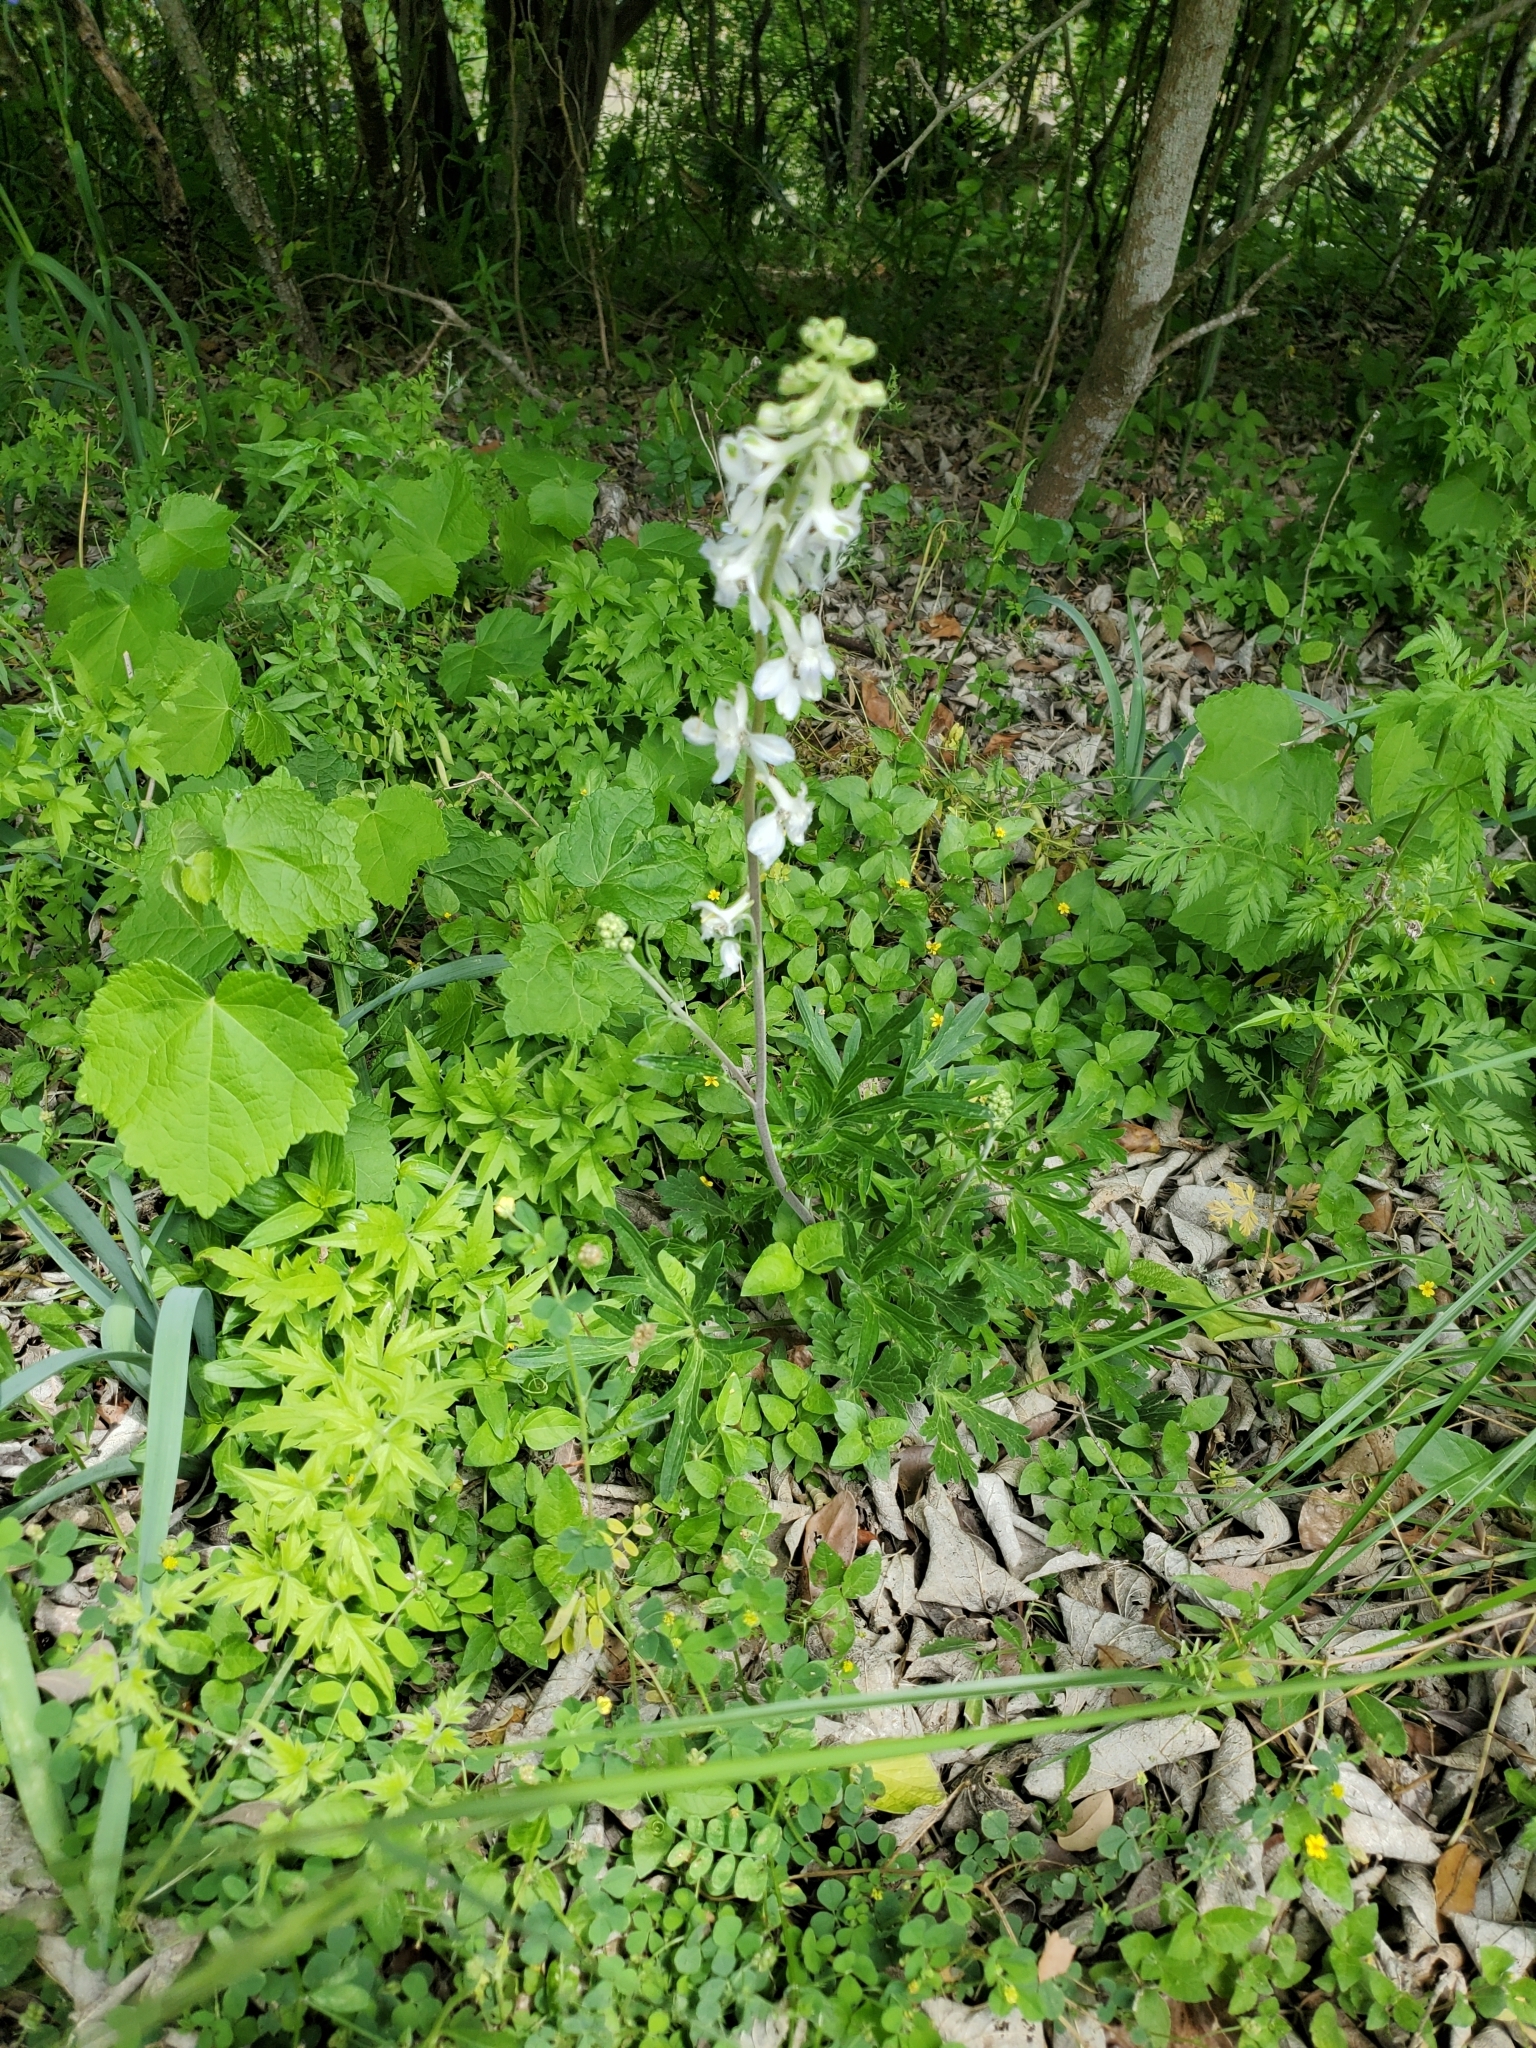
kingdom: Plantae
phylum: Tracheophyta
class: Magnoliopsida
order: Ranunculales
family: Ranunculaceae
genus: Delphinium
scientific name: Delphinium carolinianum
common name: Carolina larkspur
